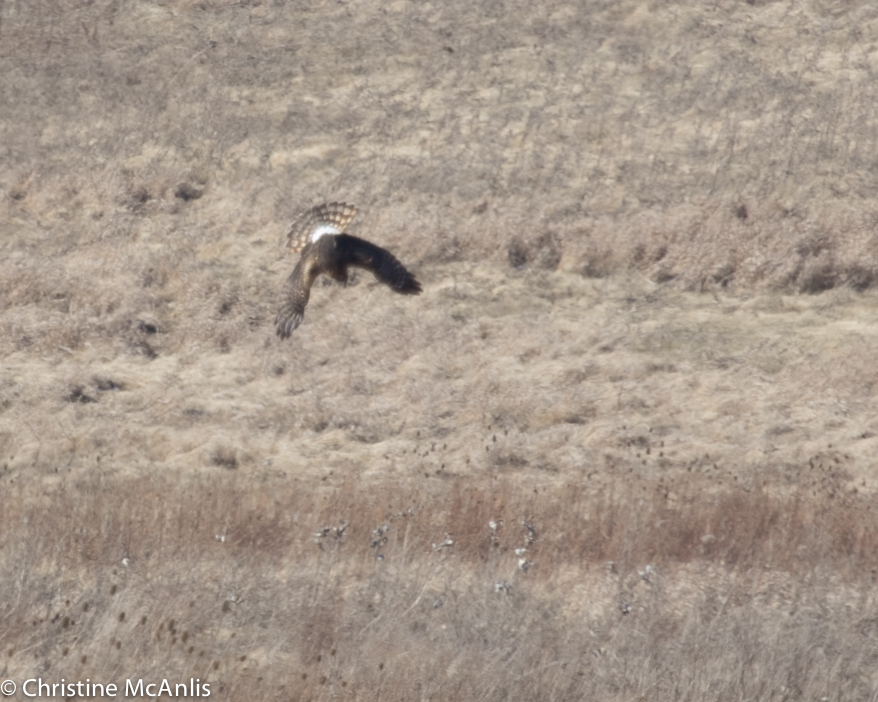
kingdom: Animalia
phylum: Chordata
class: Aves
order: Accipitriformes
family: Accipitridae
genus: Circus
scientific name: Circus cyaneus
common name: Hen harrier
